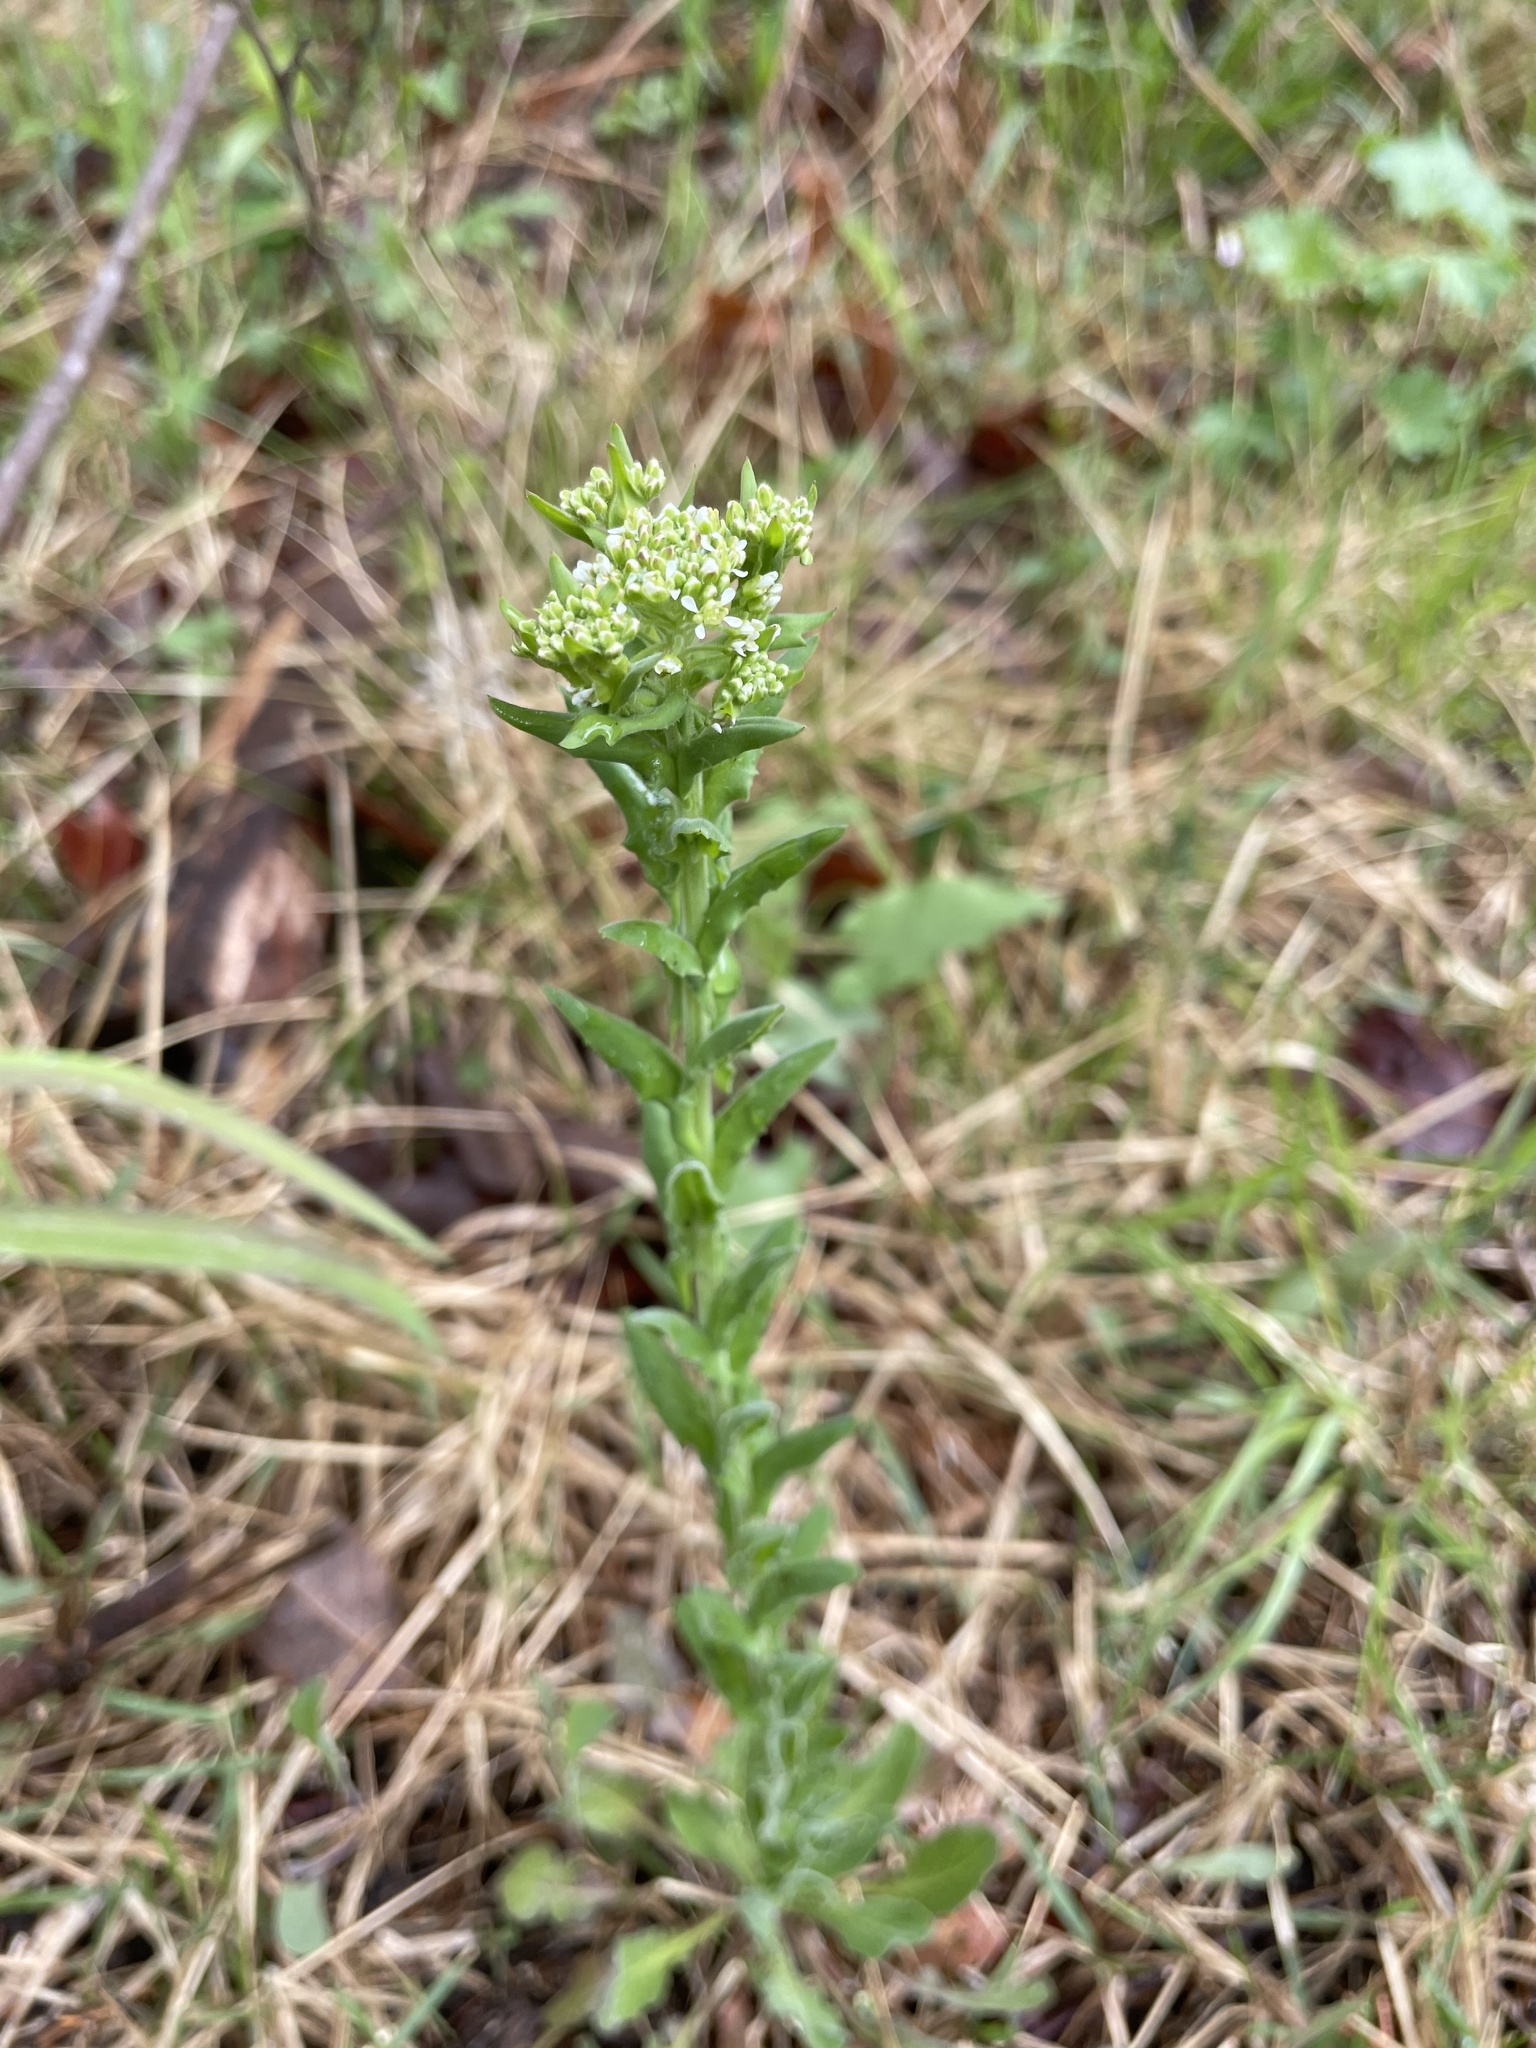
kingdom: Plantae
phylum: Tracheophyta
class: Magnoliopsida
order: Brassicales
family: Brassicaceae
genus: Lepidium
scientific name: Lepidium campestre
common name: Field pepperwort
